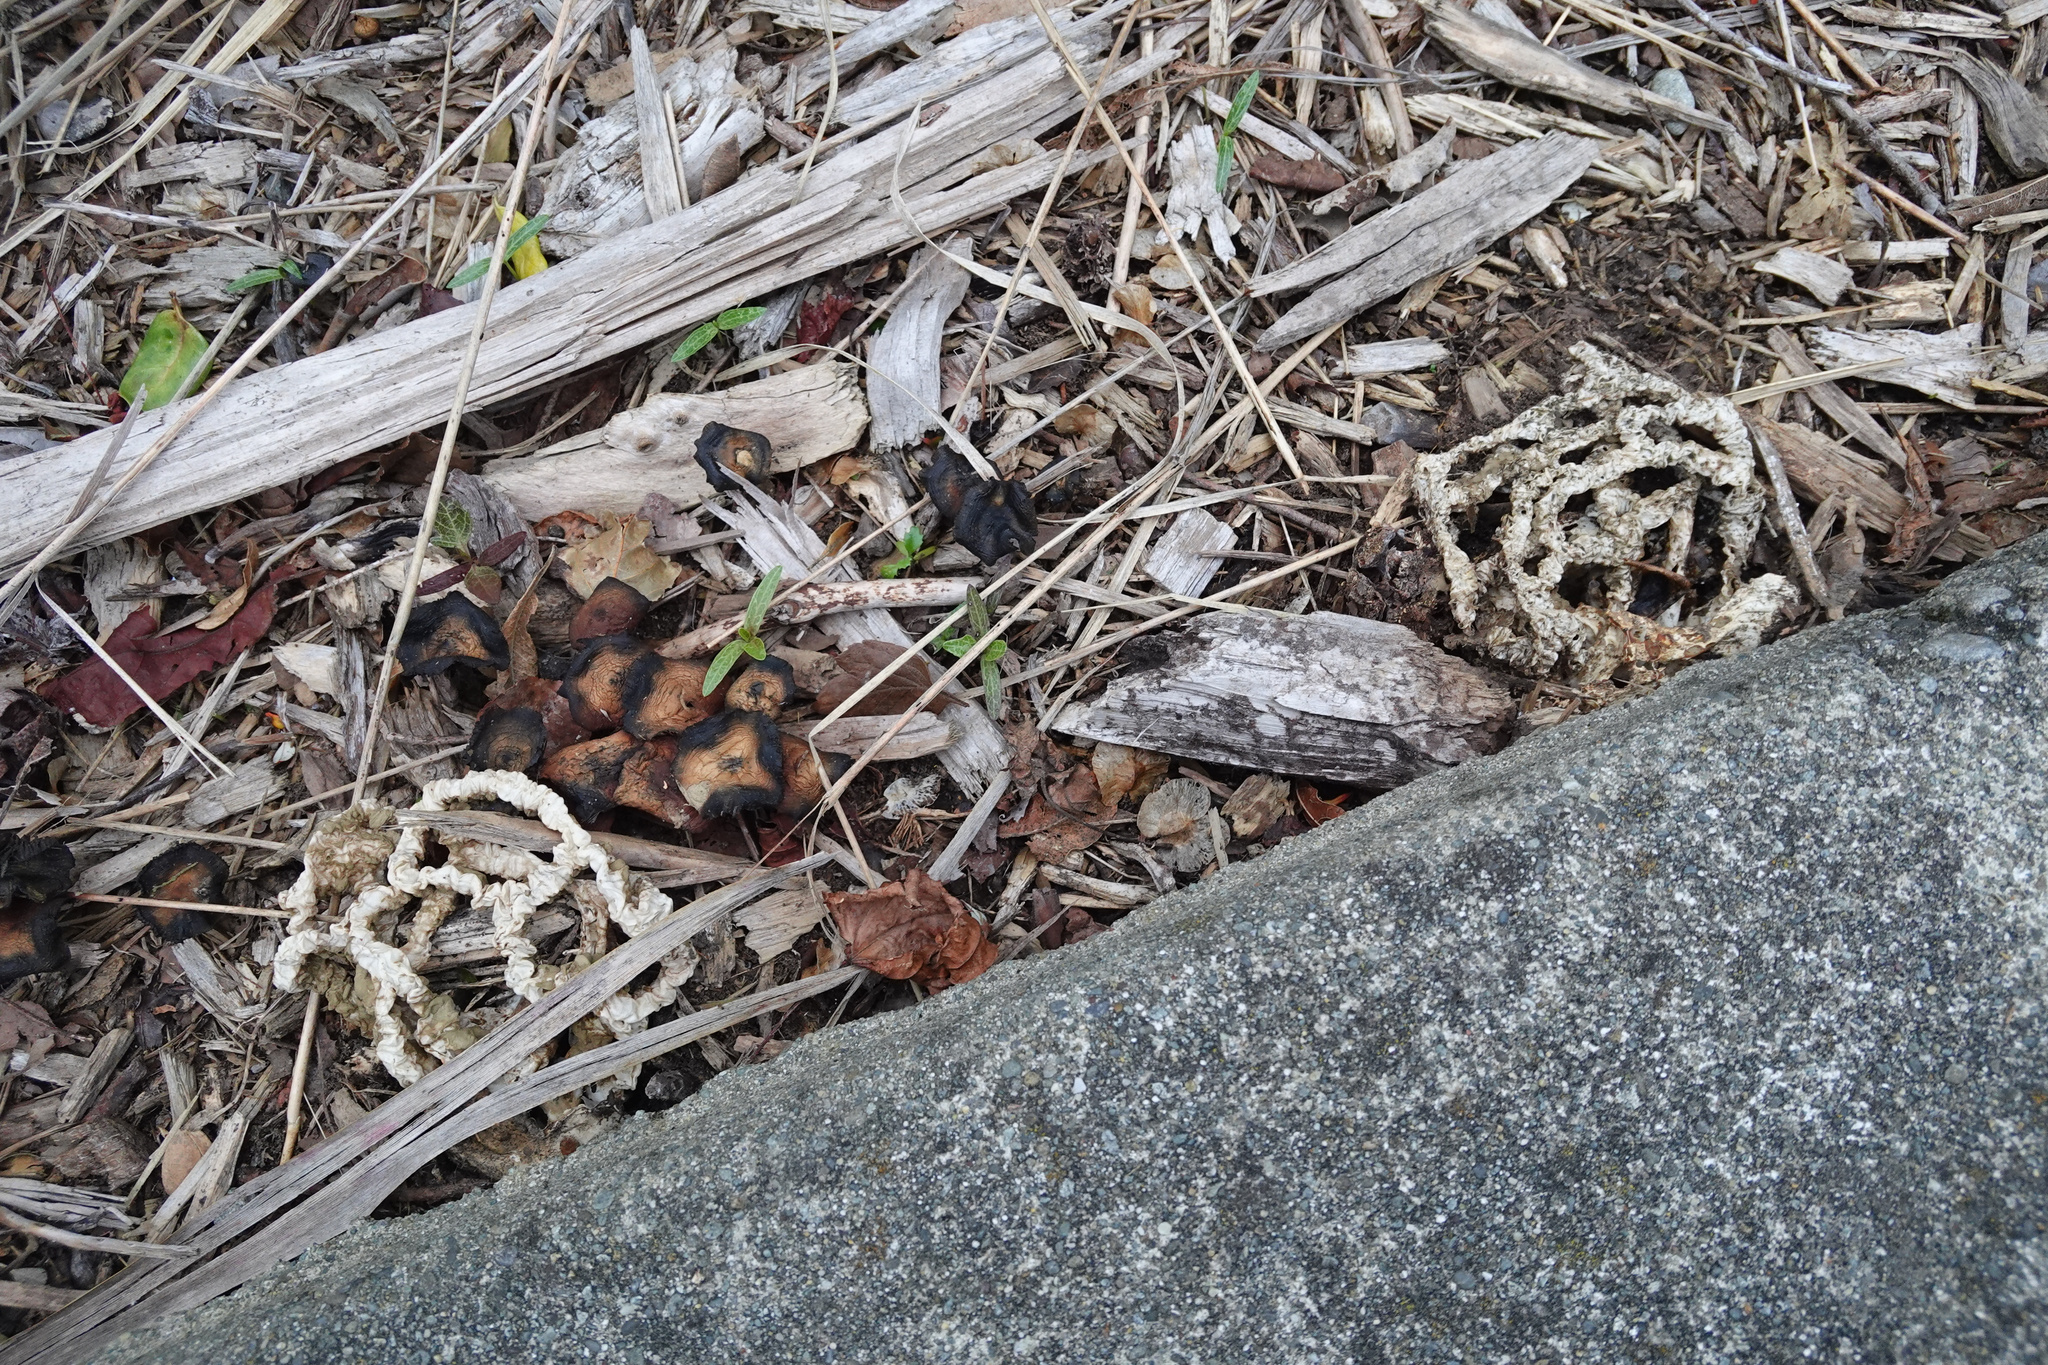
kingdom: Fungi
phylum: Basidiomycota
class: Agaricomycetes
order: Phallales
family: Phallaceae
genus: Ileodictyon
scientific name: Ileodictyon cibarium
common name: Basket fungus
